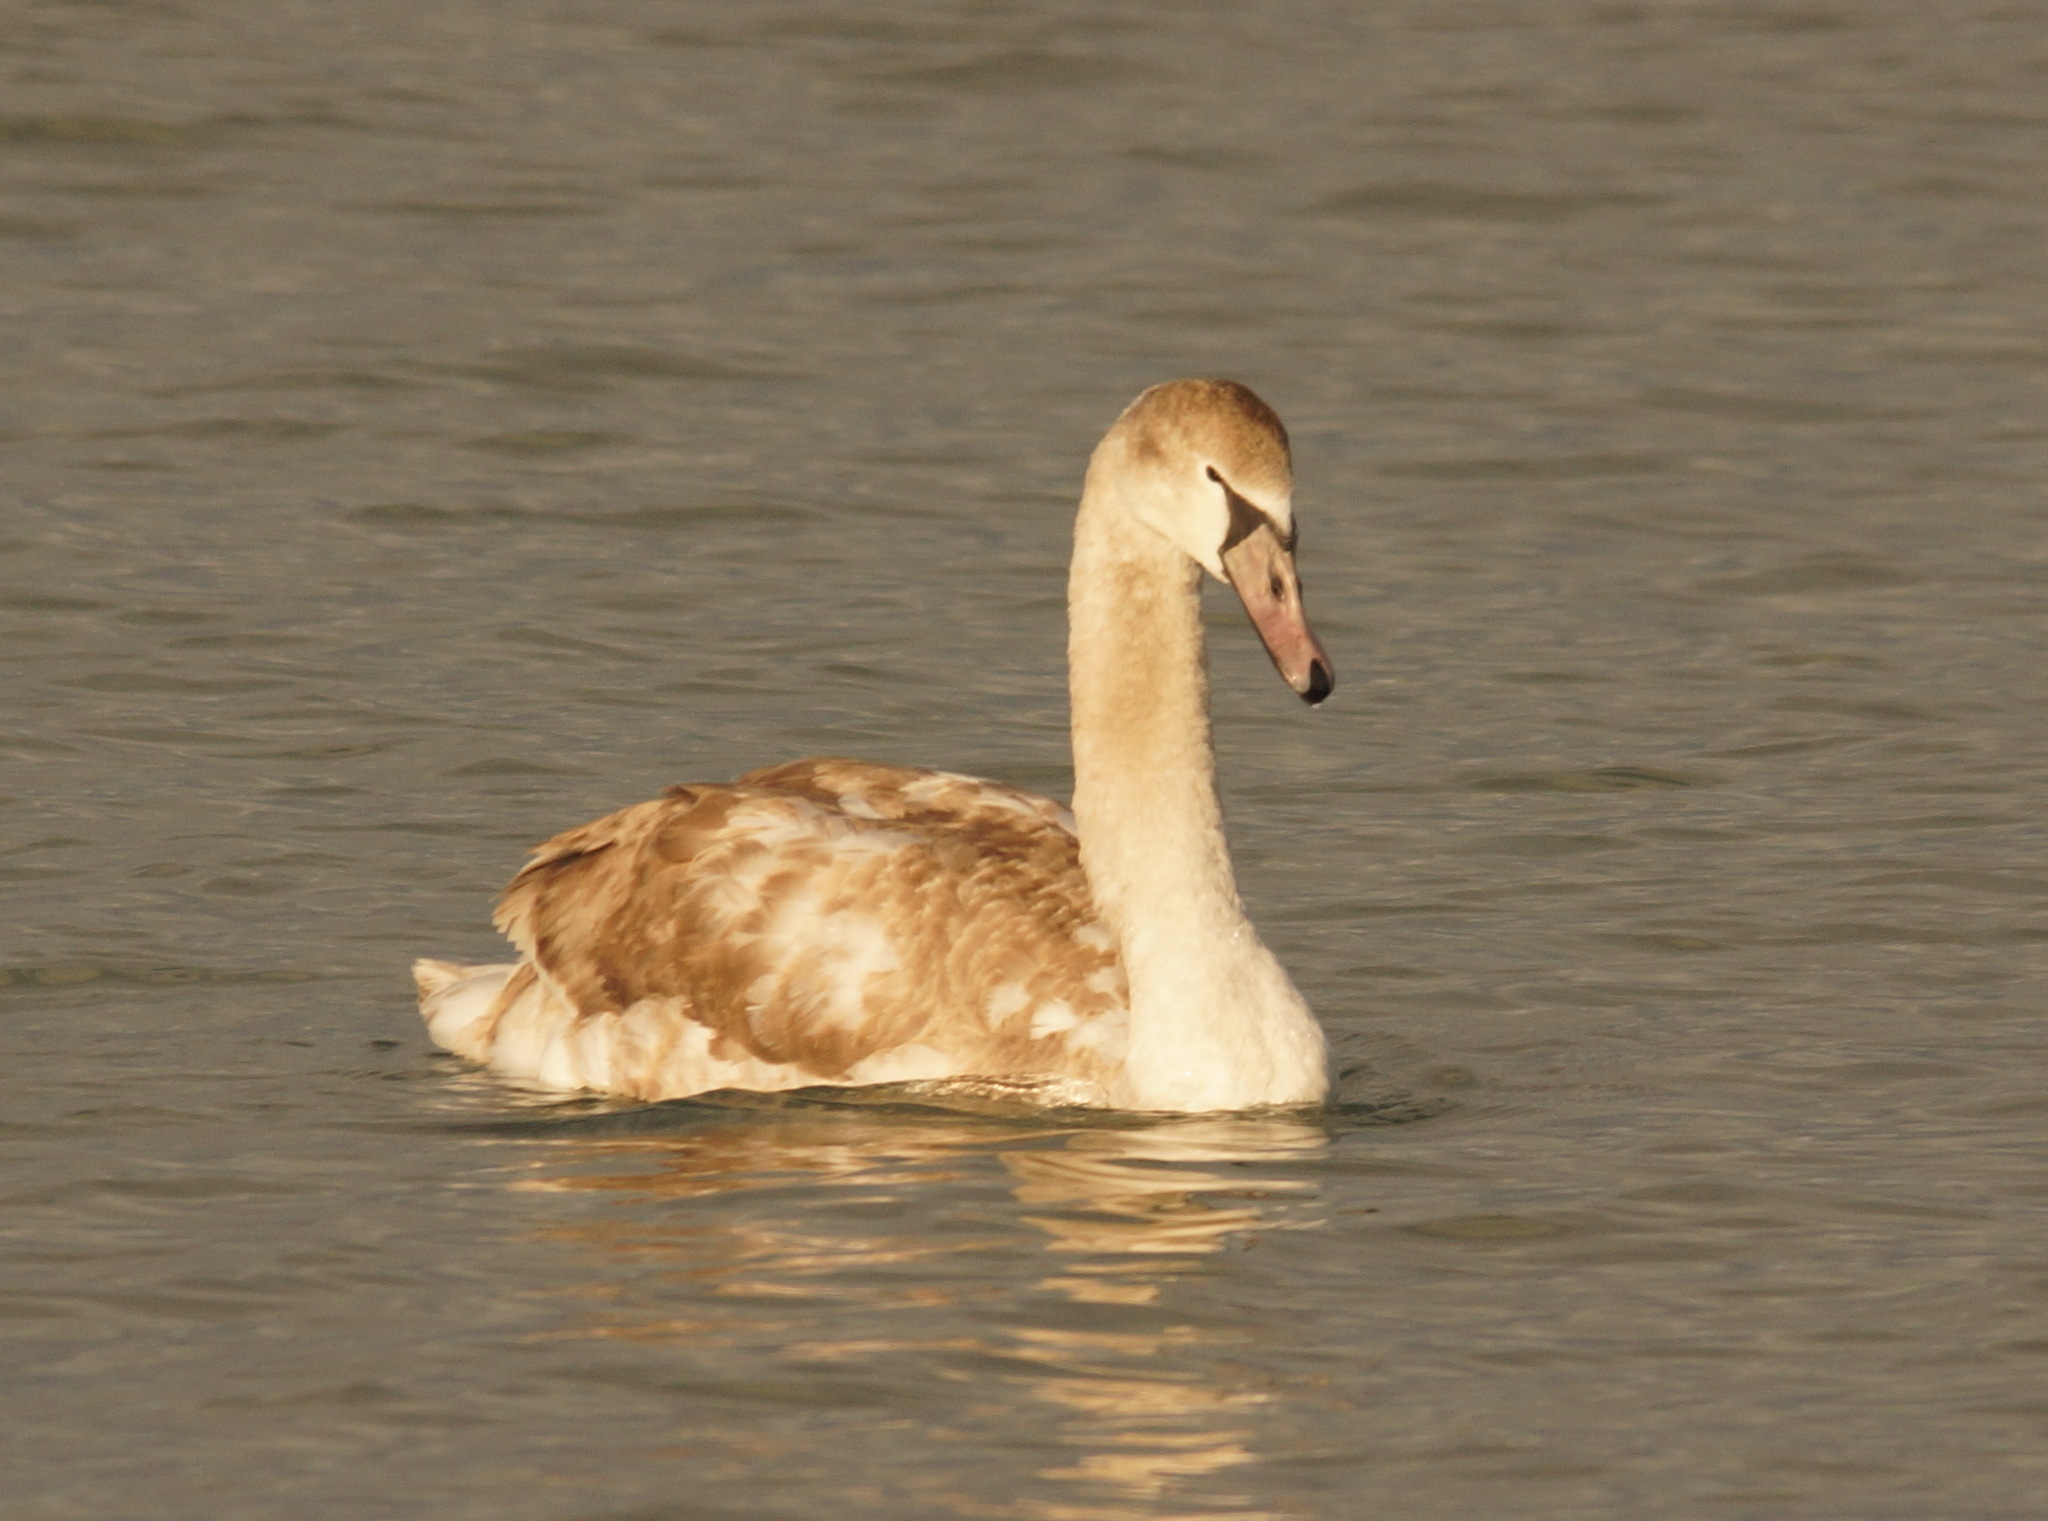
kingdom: Animalia
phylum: Chordata
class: Aves
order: Anseriformes
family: Anatidae
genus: Cygnus
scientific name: Cygnus olor
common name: Mute swan
